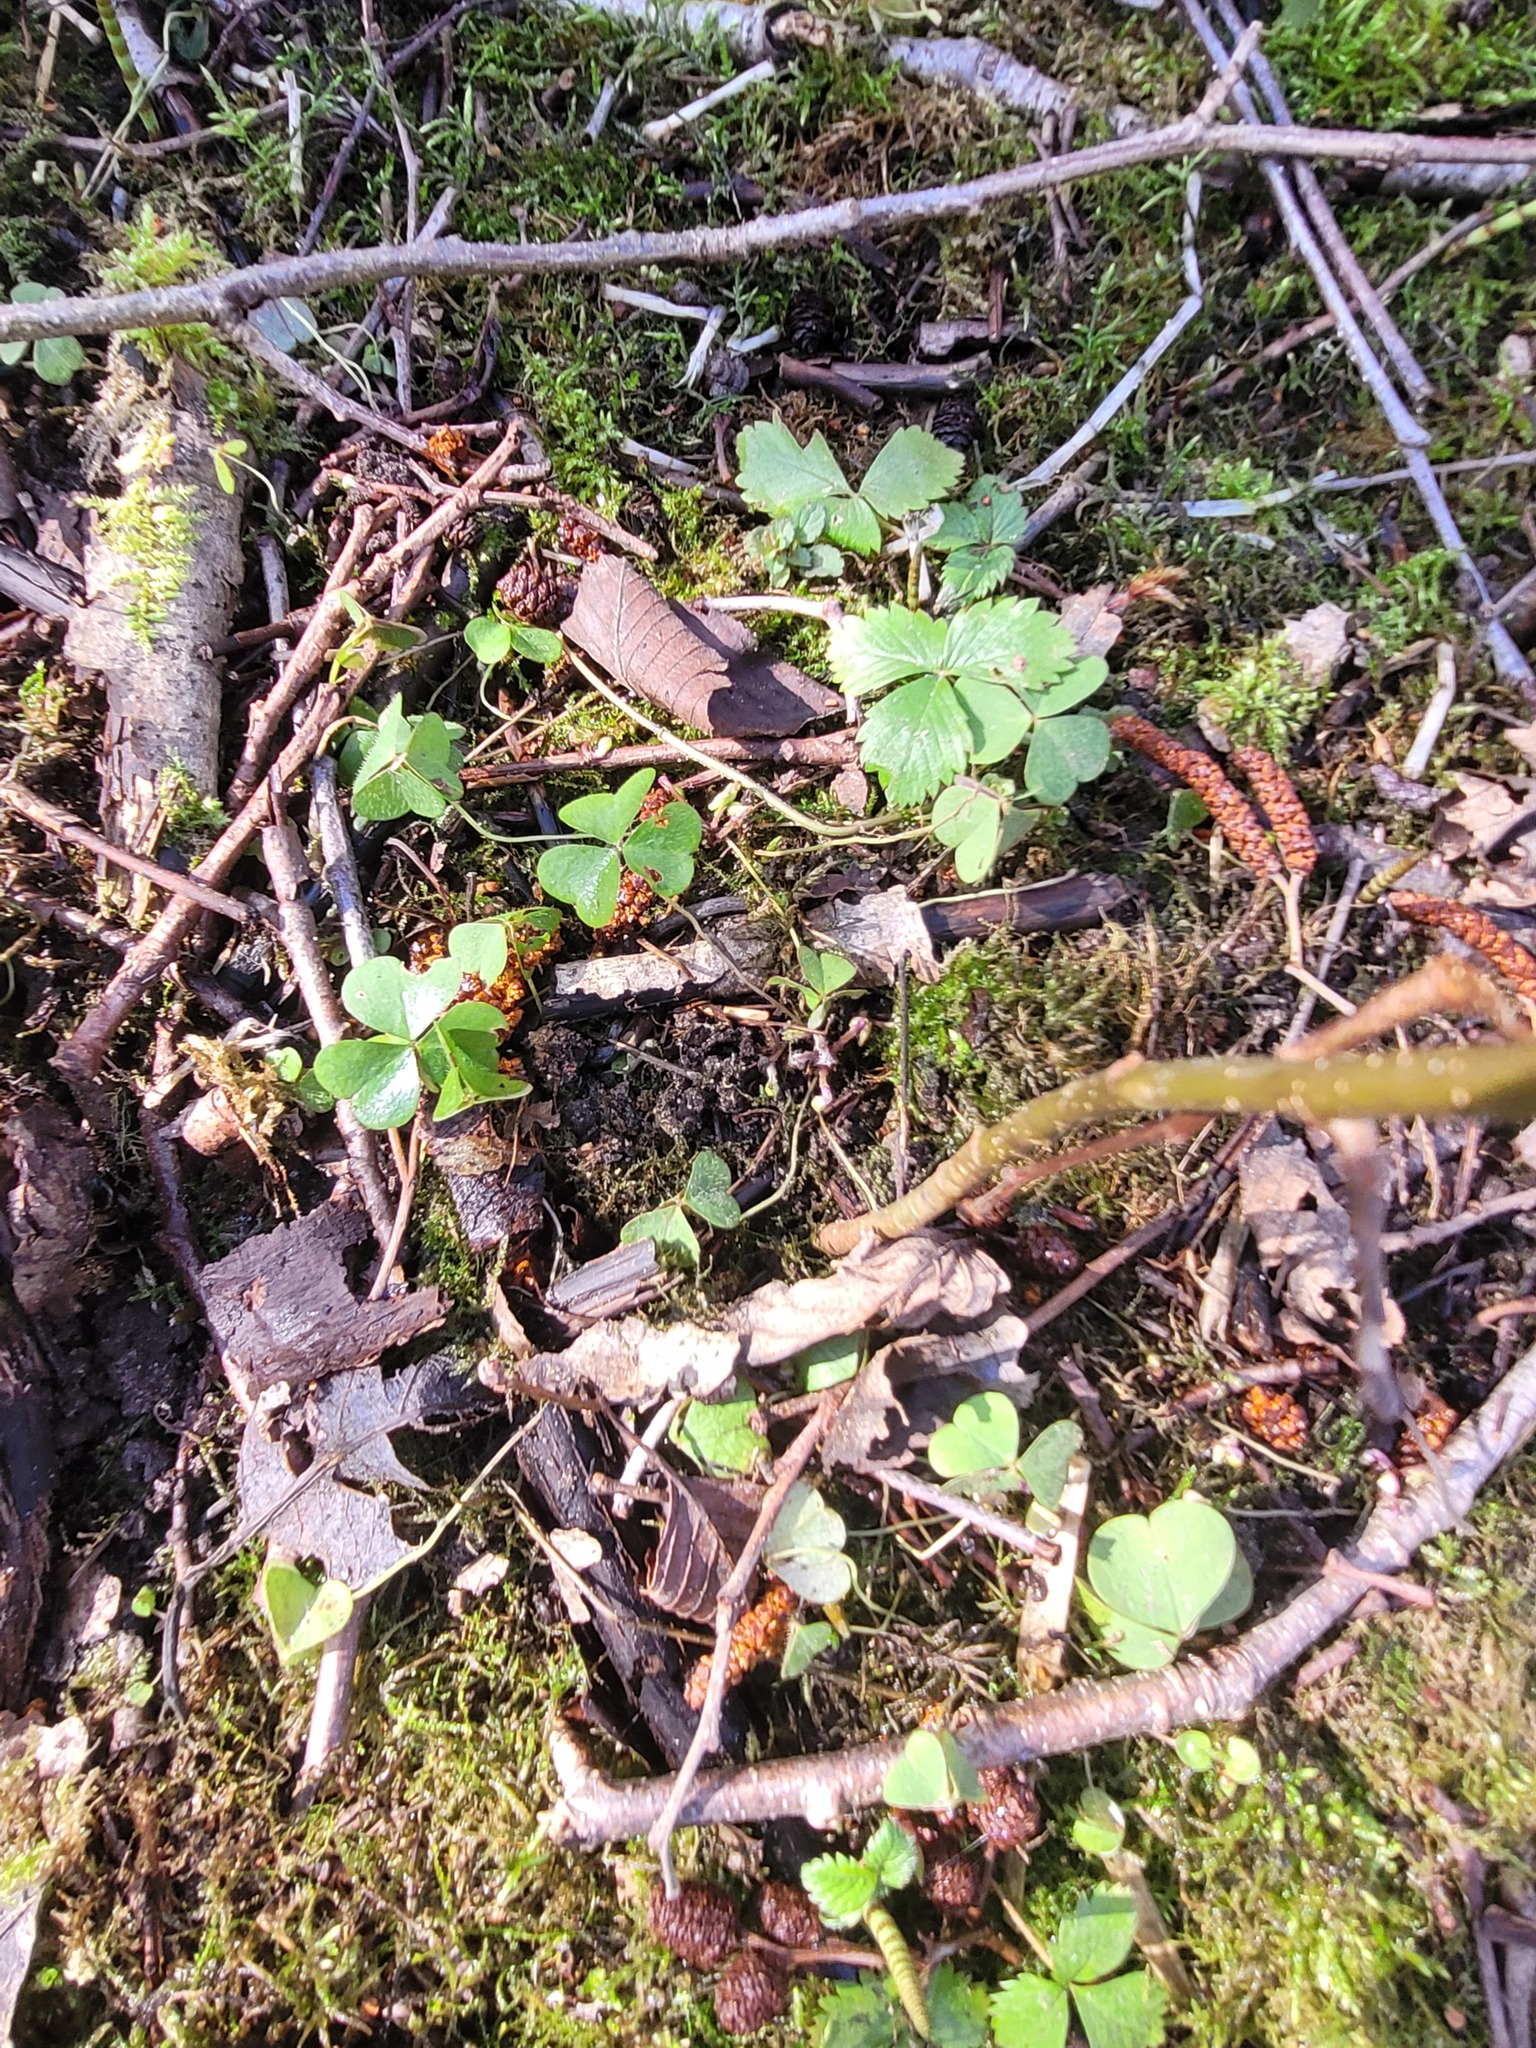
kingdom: Plantae
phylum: Tracheophyta
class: Magnoliopsida
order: Oxalidales
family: Oxalidaceae
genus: Oxalis
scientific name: Oxalis acetosella
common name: Wood-sorrel
